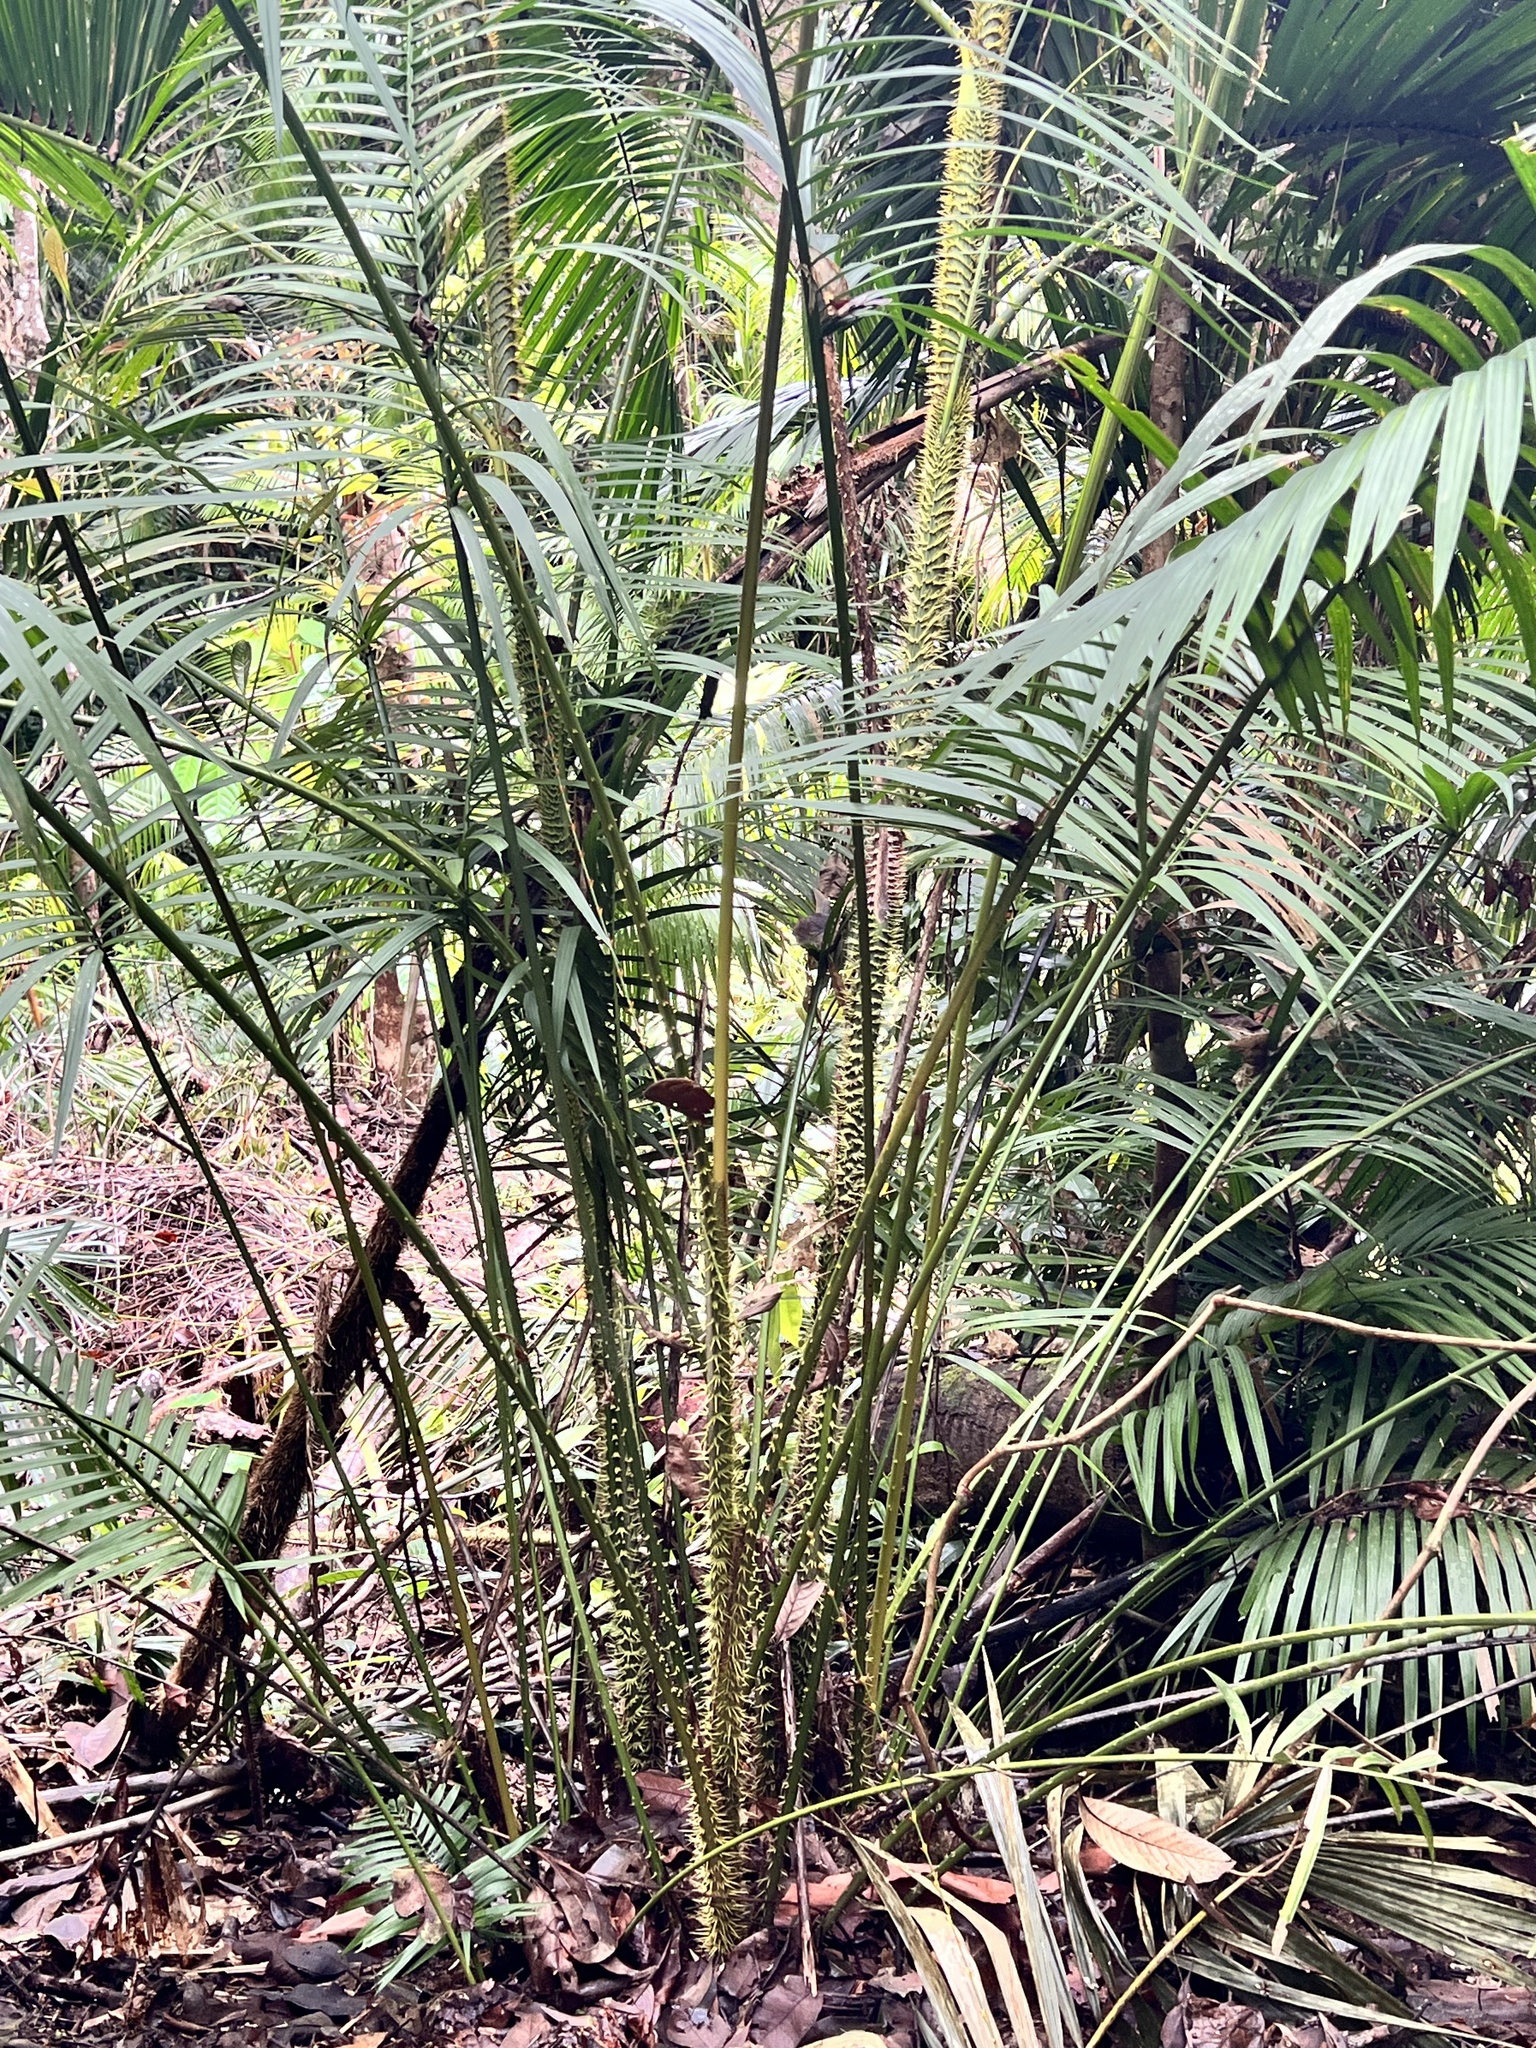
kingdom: Plantae
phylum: Tracheophyta
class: Liliopsida
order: Arecales
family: Arecaceae
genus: Calamus
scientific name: Calamus moti
